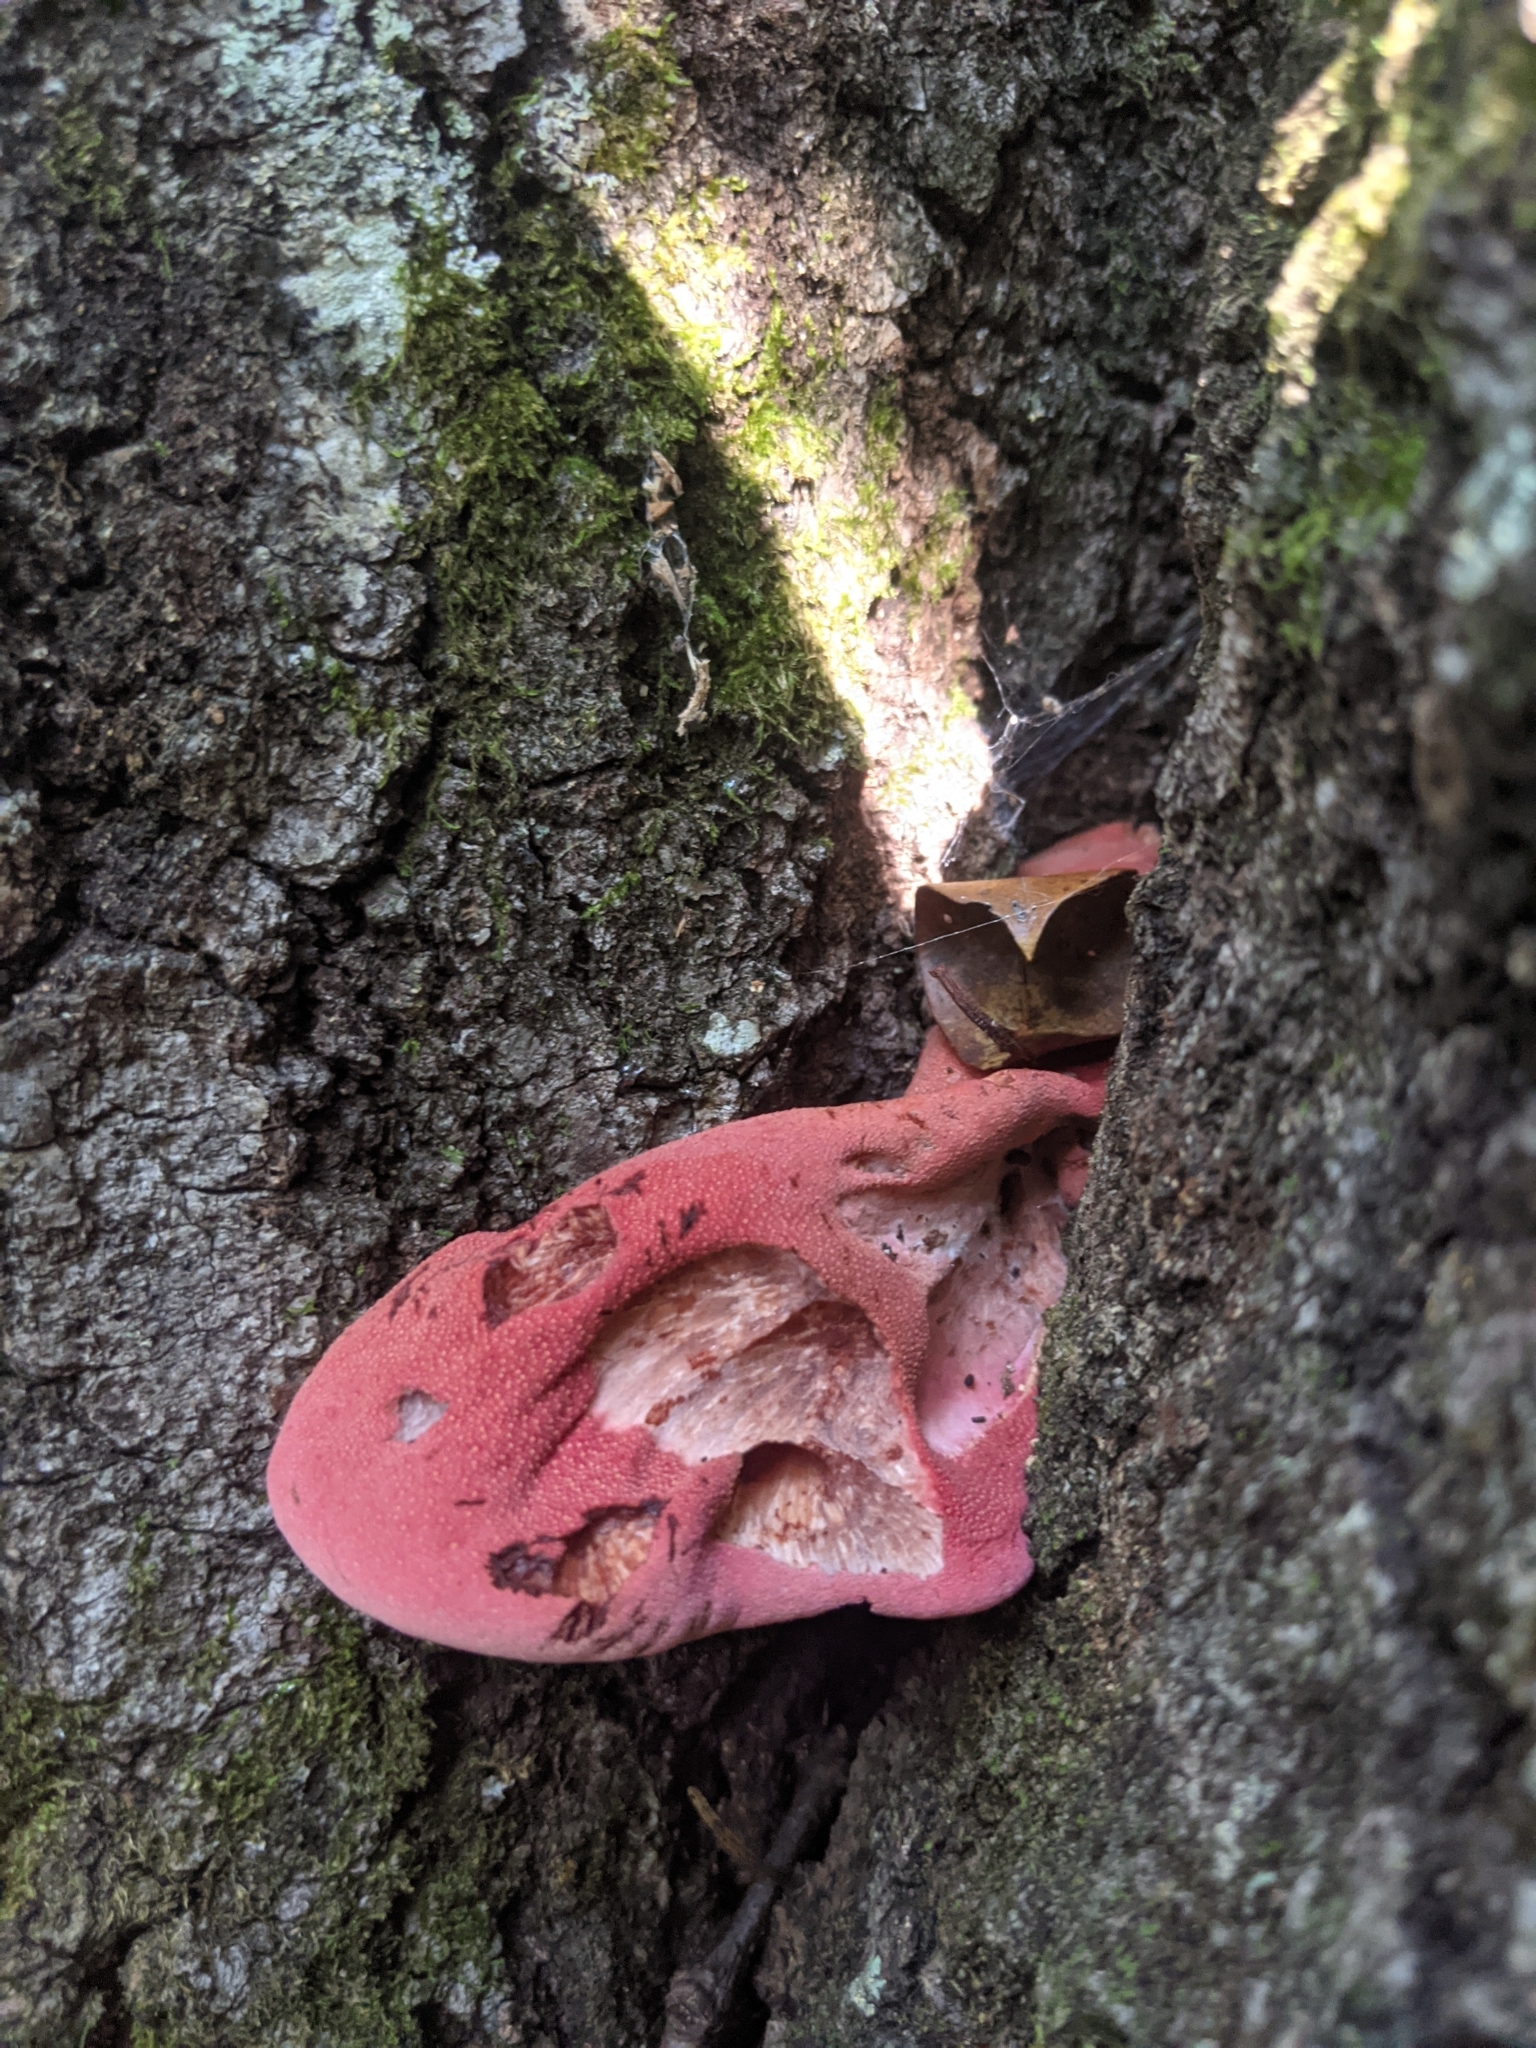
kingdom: Fungi
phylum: Basidiomycota
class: Agaricomycetes
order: Agaricales
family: Fistulinaceae
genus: Fistulina
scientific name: Fistulina hepatica
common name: Beef-steak fungus
